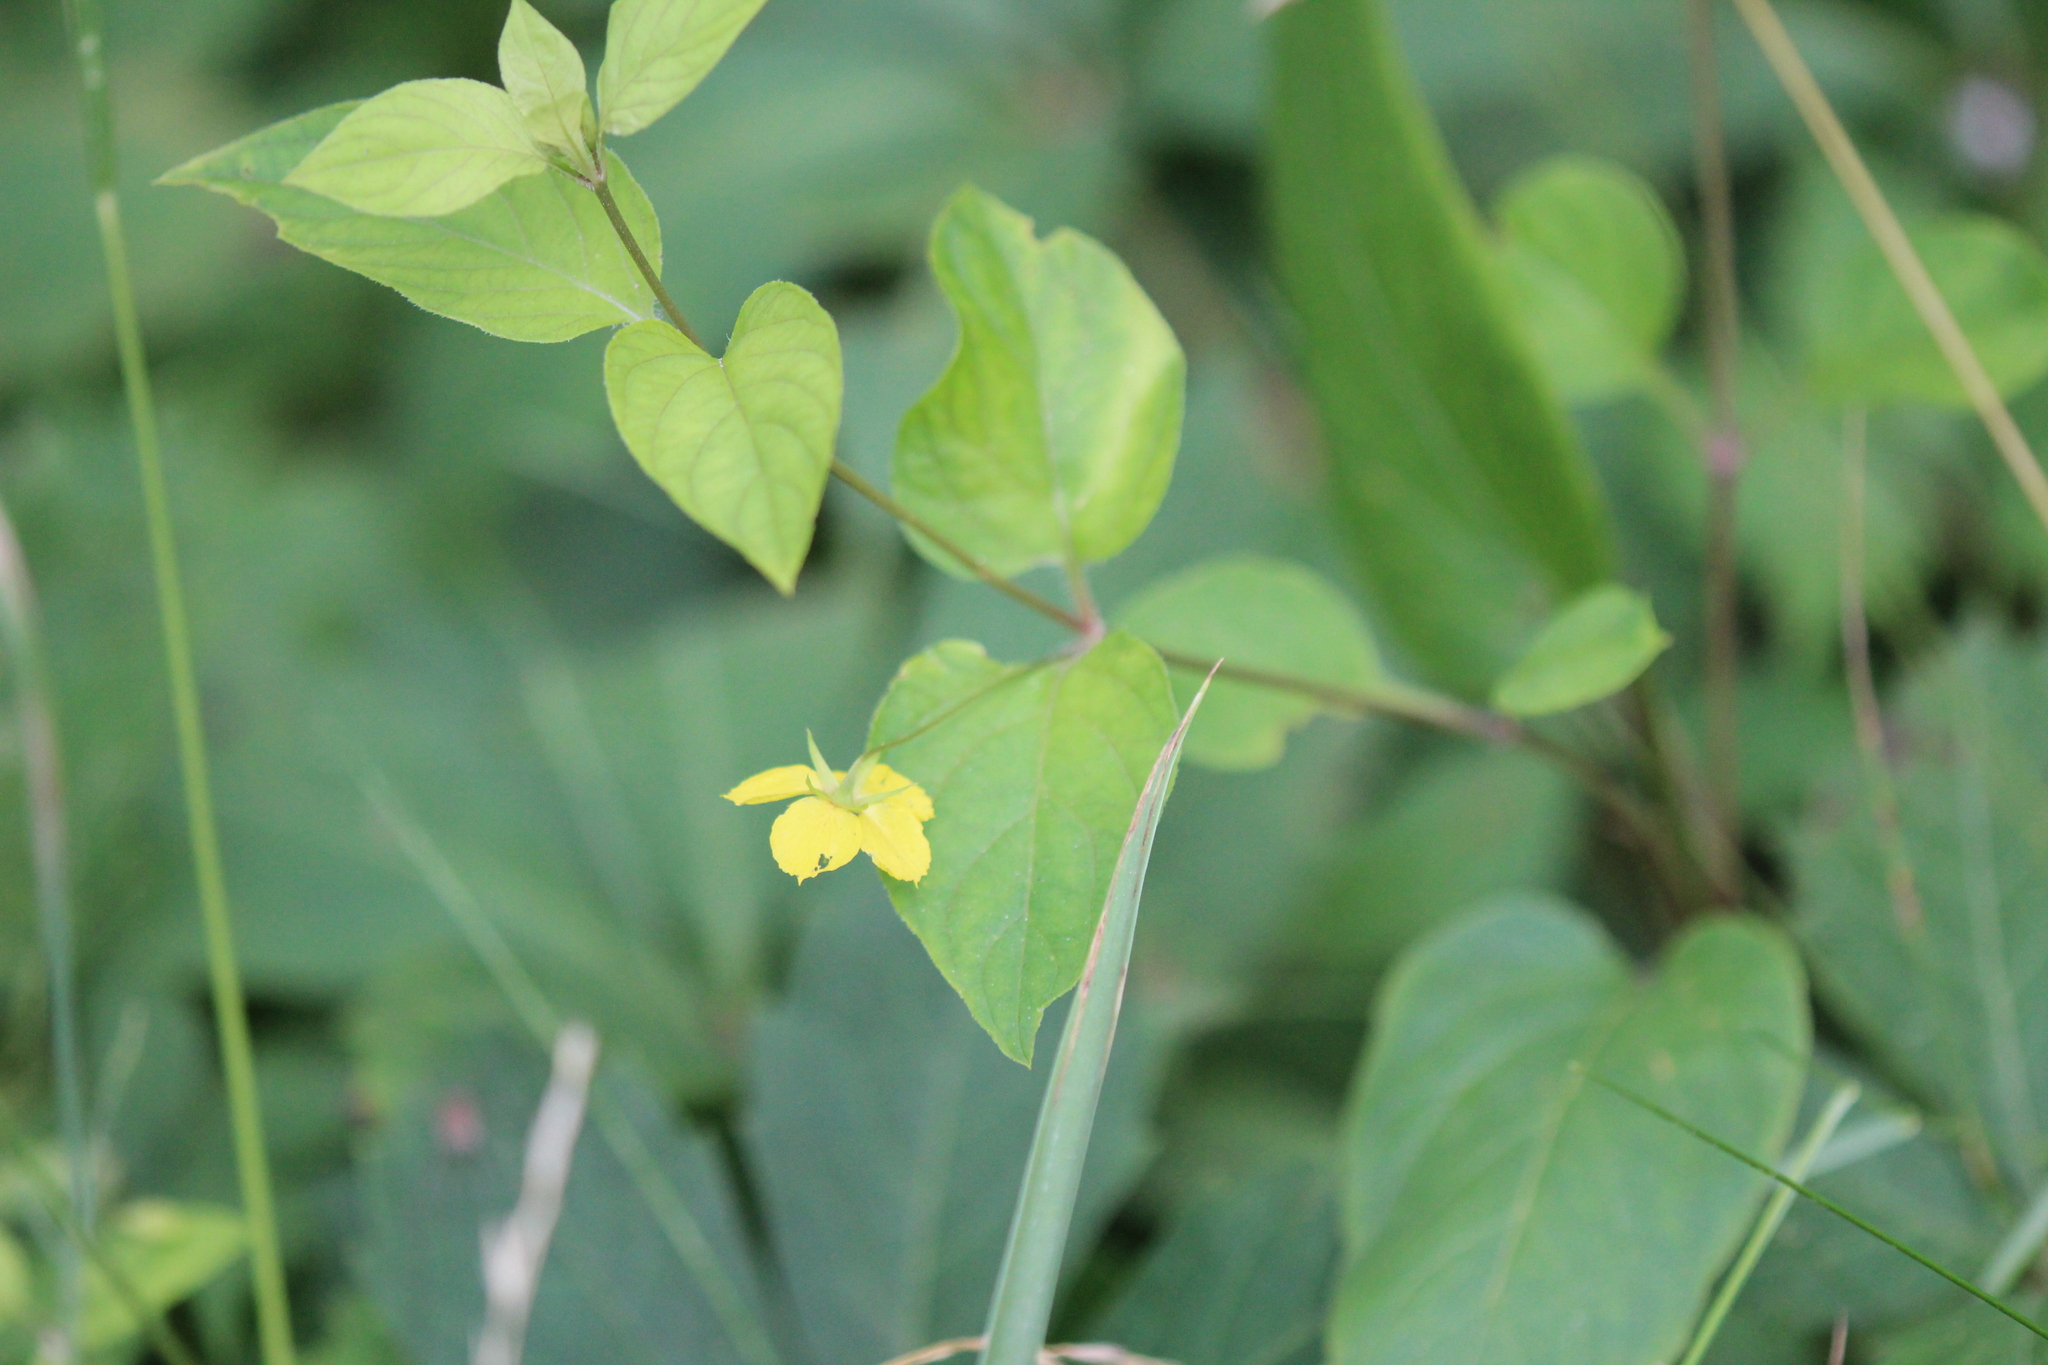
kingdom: Plantae
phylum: Tracheophyta
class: Magnoliopsida
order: Ericales
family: Primulaceae
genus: Lysimachia
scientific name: Lysimachia ciliata
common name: Fringed loosestrife
